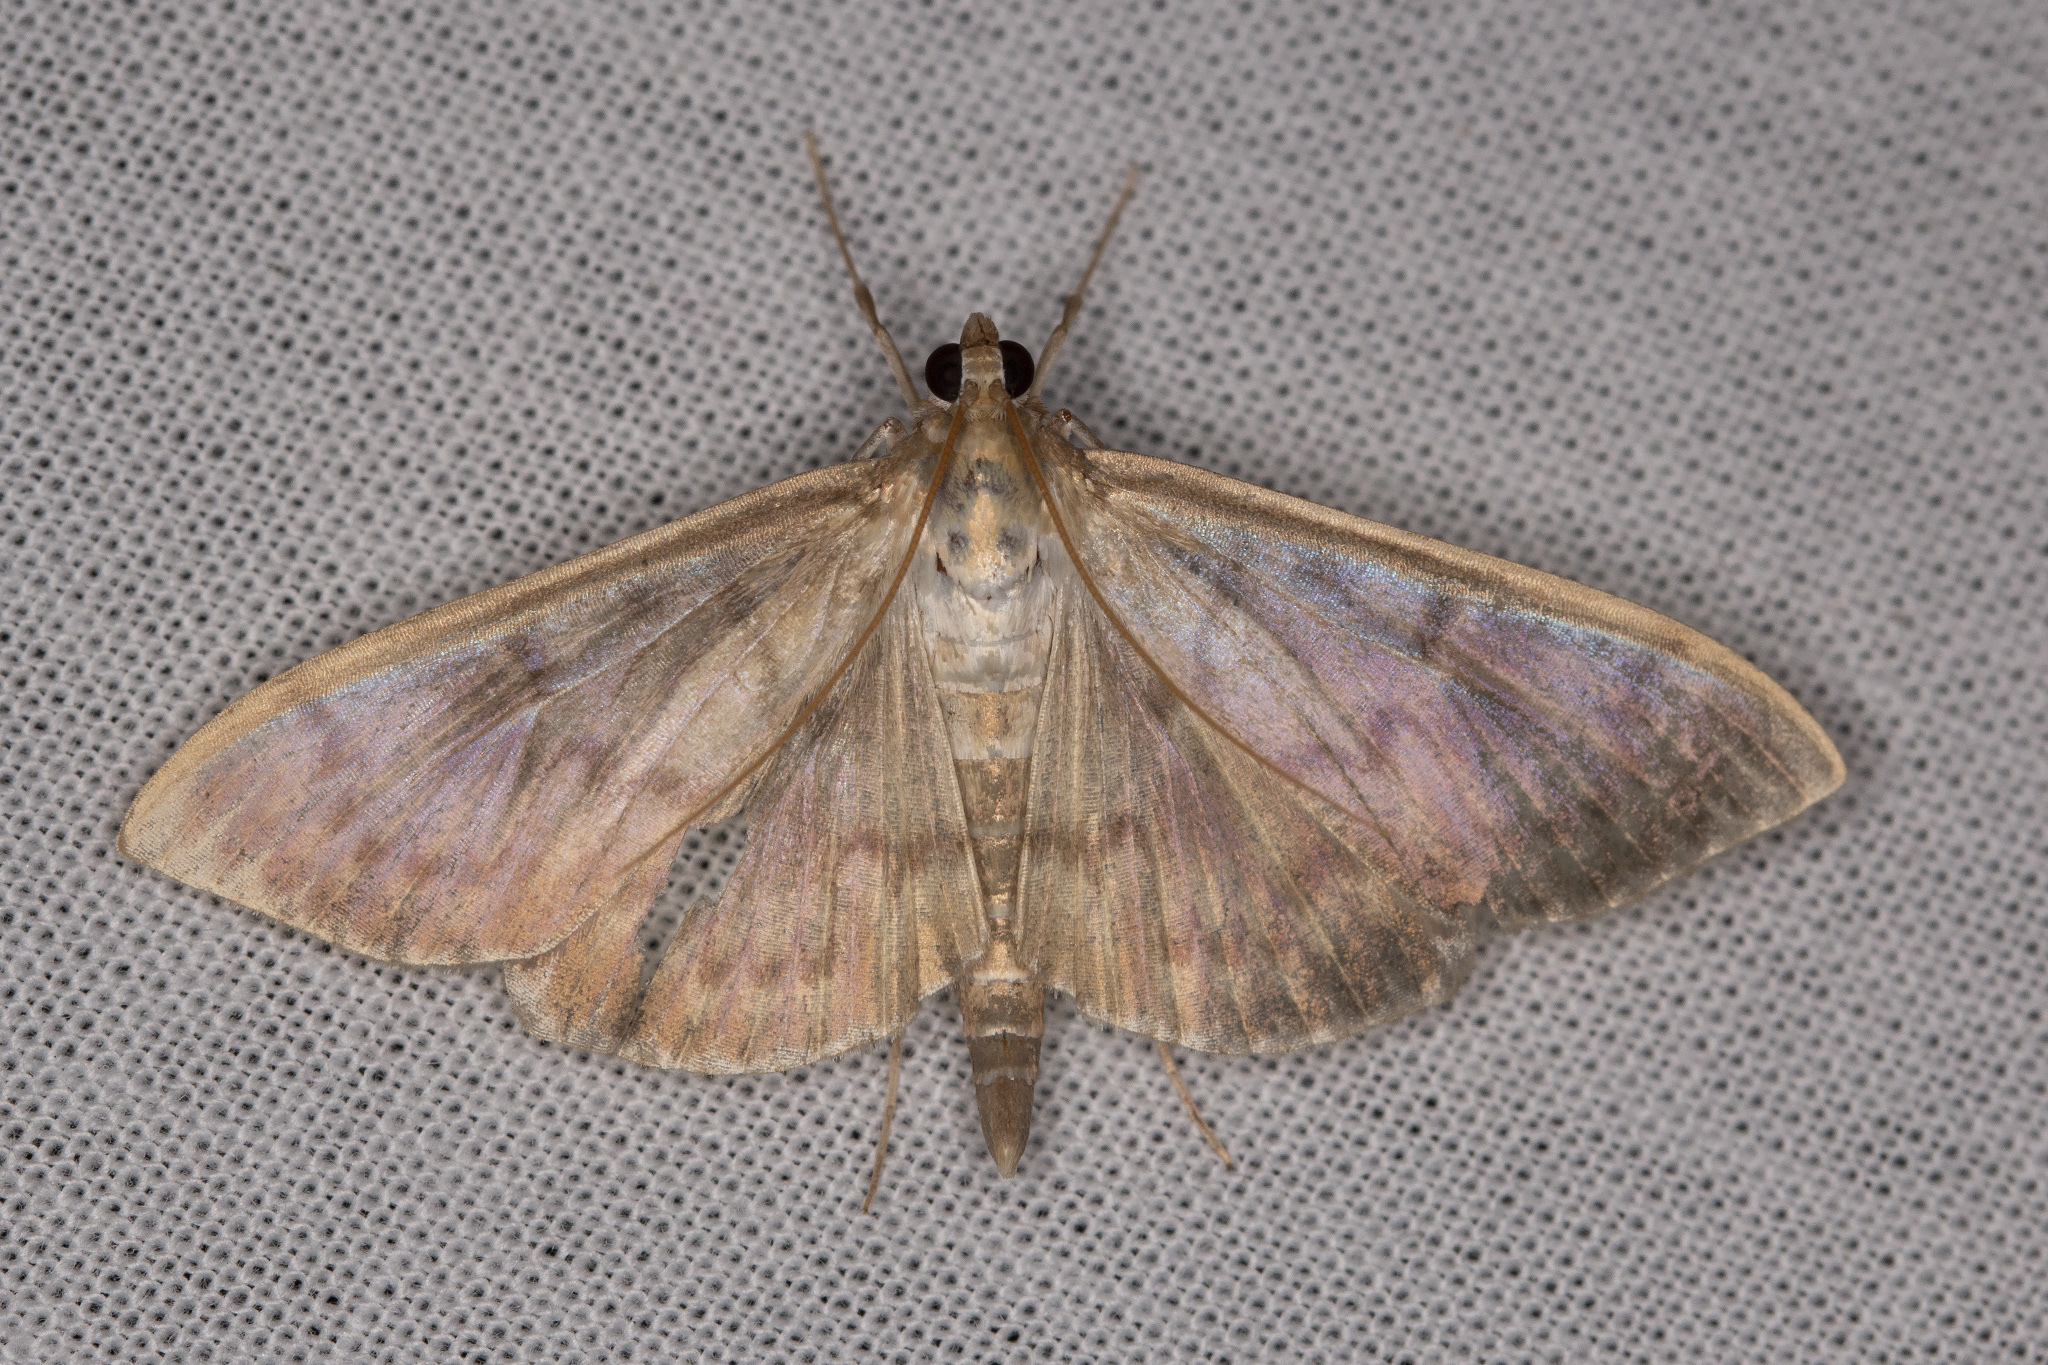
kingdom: Animalia
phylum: Arthropoda
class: Insecta
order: Lepidoptera
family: Crambidae
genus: Patania
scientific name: Patania ruralis
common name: Mother of pearl
